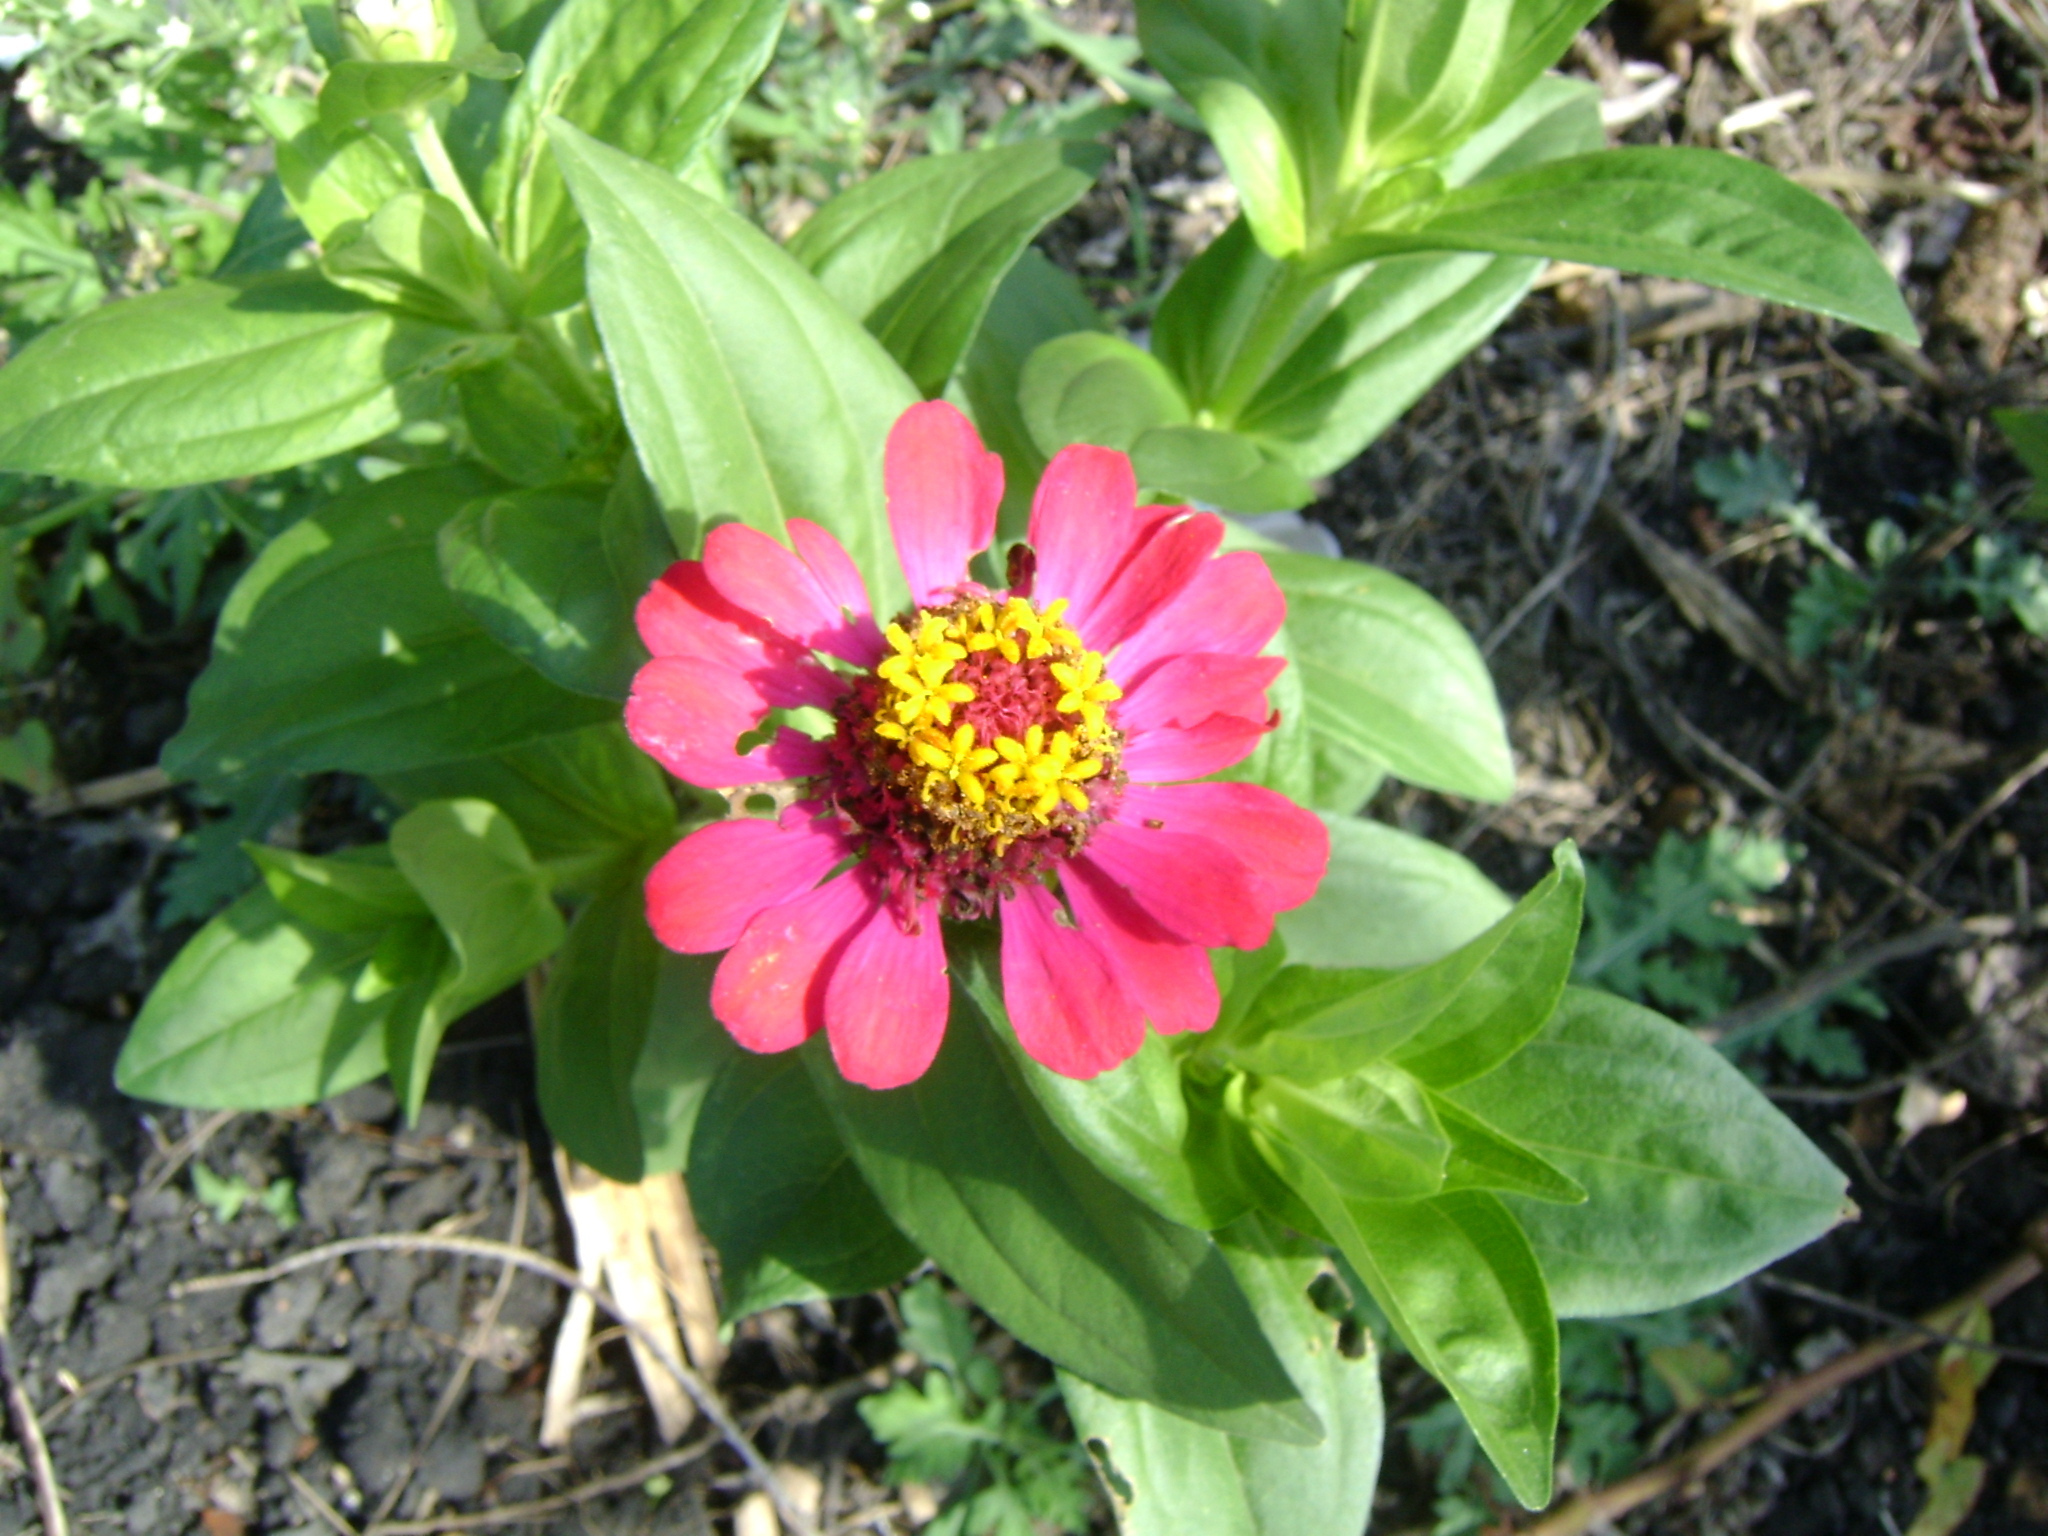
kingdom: Plantae
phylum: Tracheophyta
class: Magnoliopsida
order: Asterales
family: Asteraceae
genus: Zinnia
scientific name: Zinnia elegans
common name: Youth-and-age
